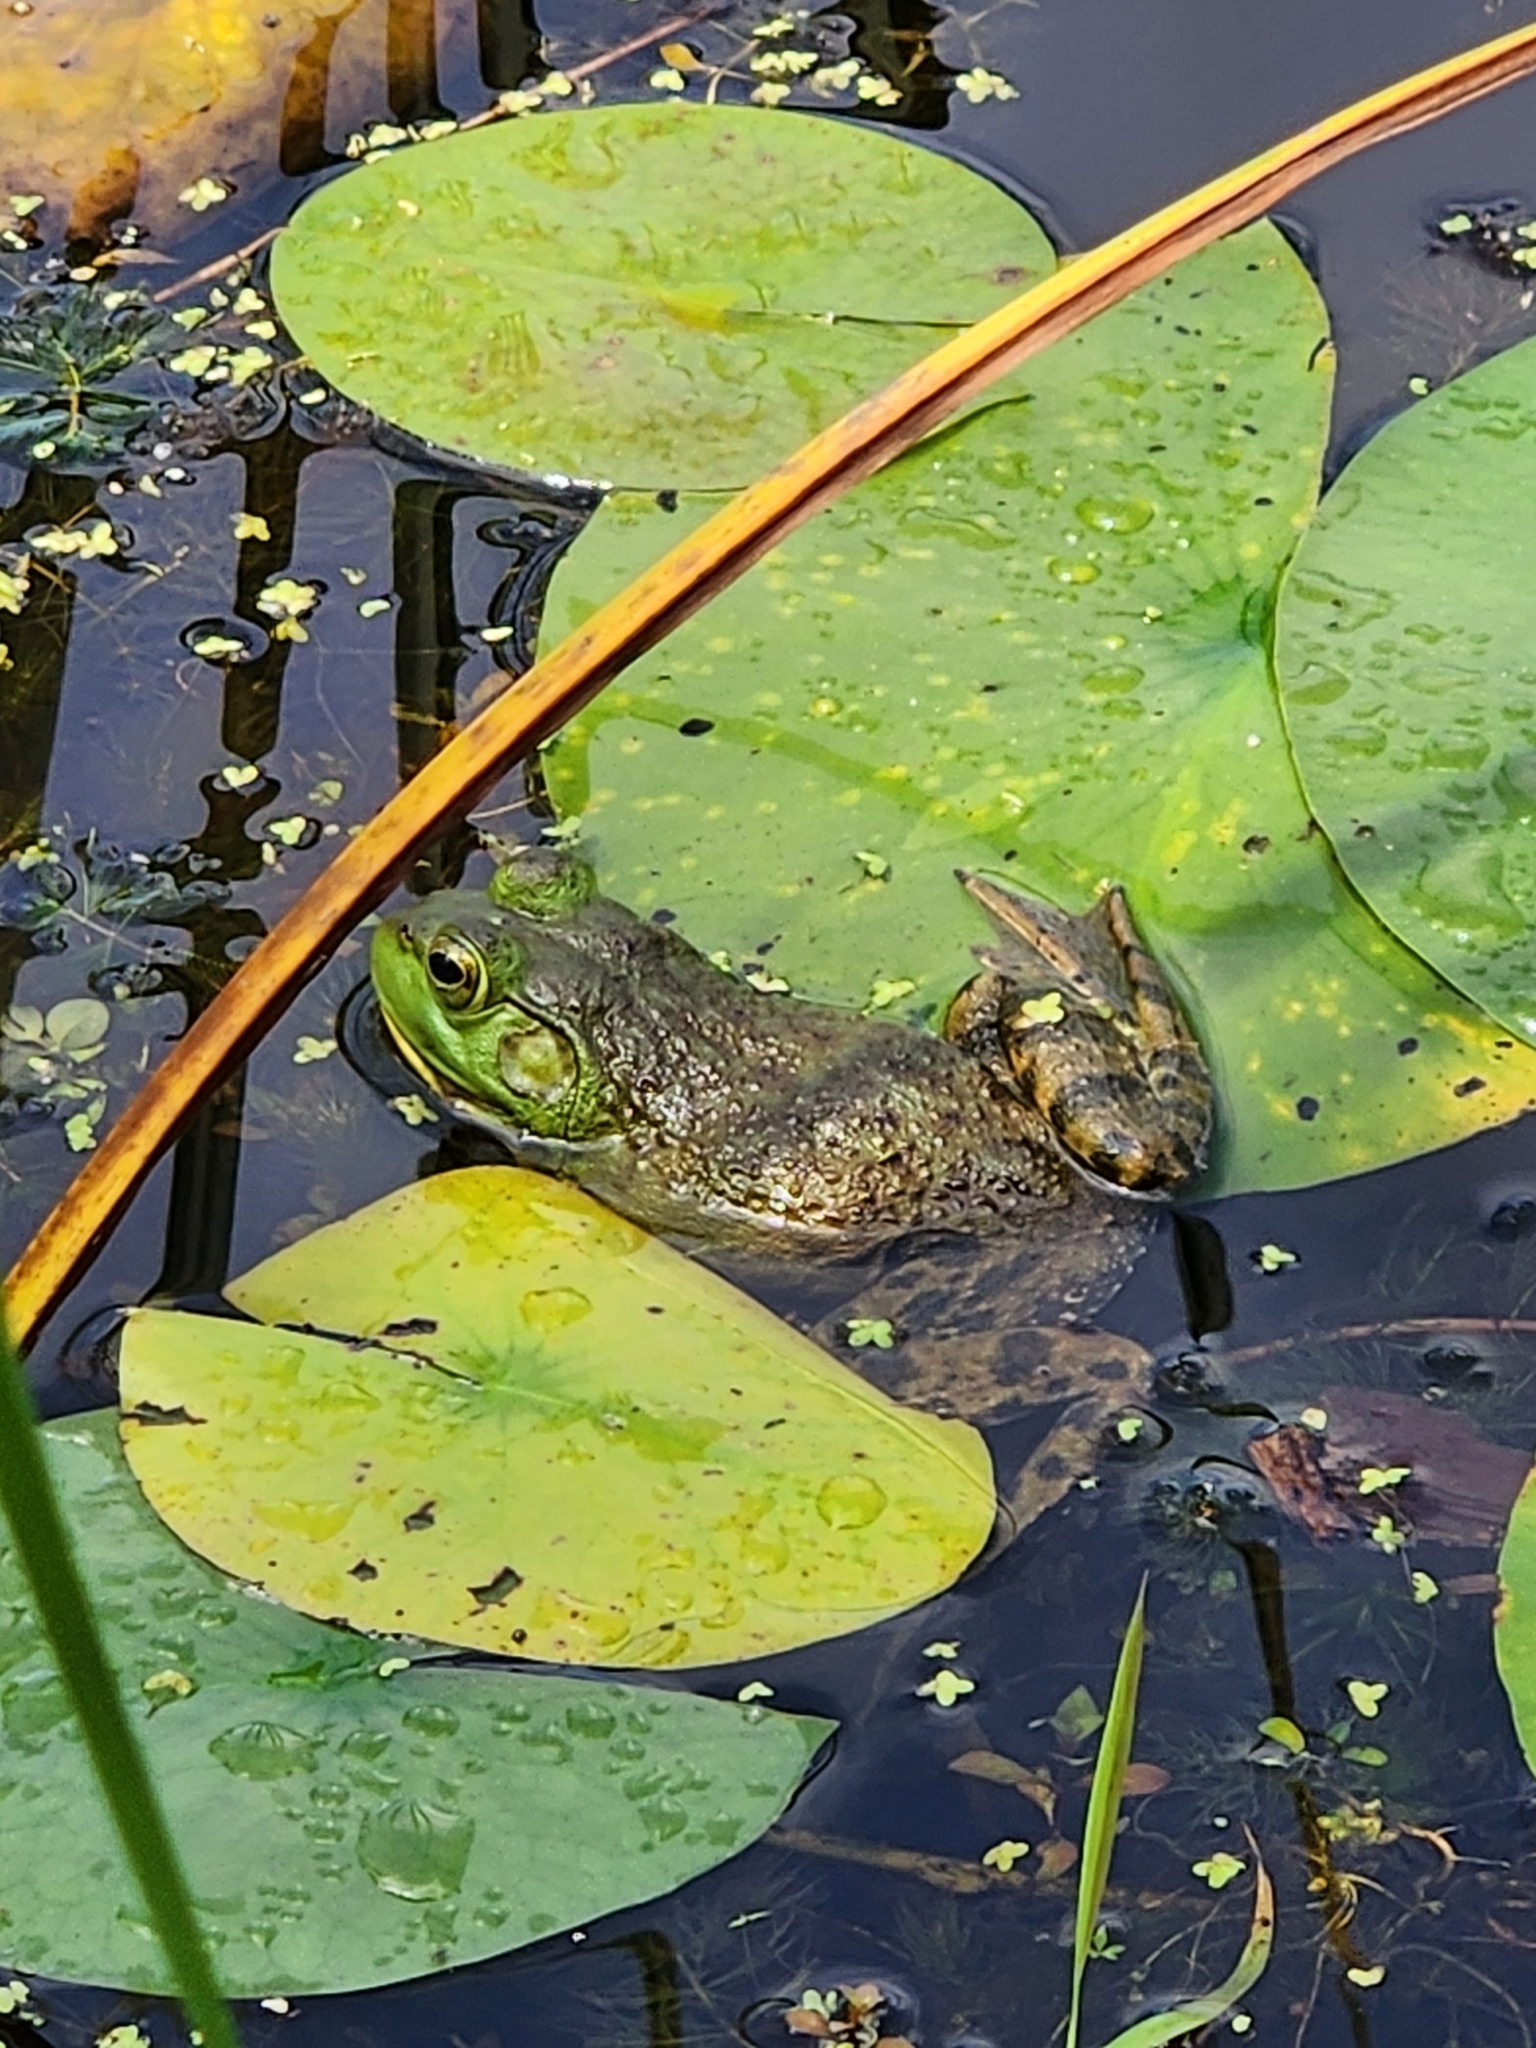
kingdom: Animalia
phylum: Chordata
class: Amphibia
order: Anura
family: Ranidae
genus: Lithobates
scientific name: Lithobates catesbeianus
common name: American bullfrog
